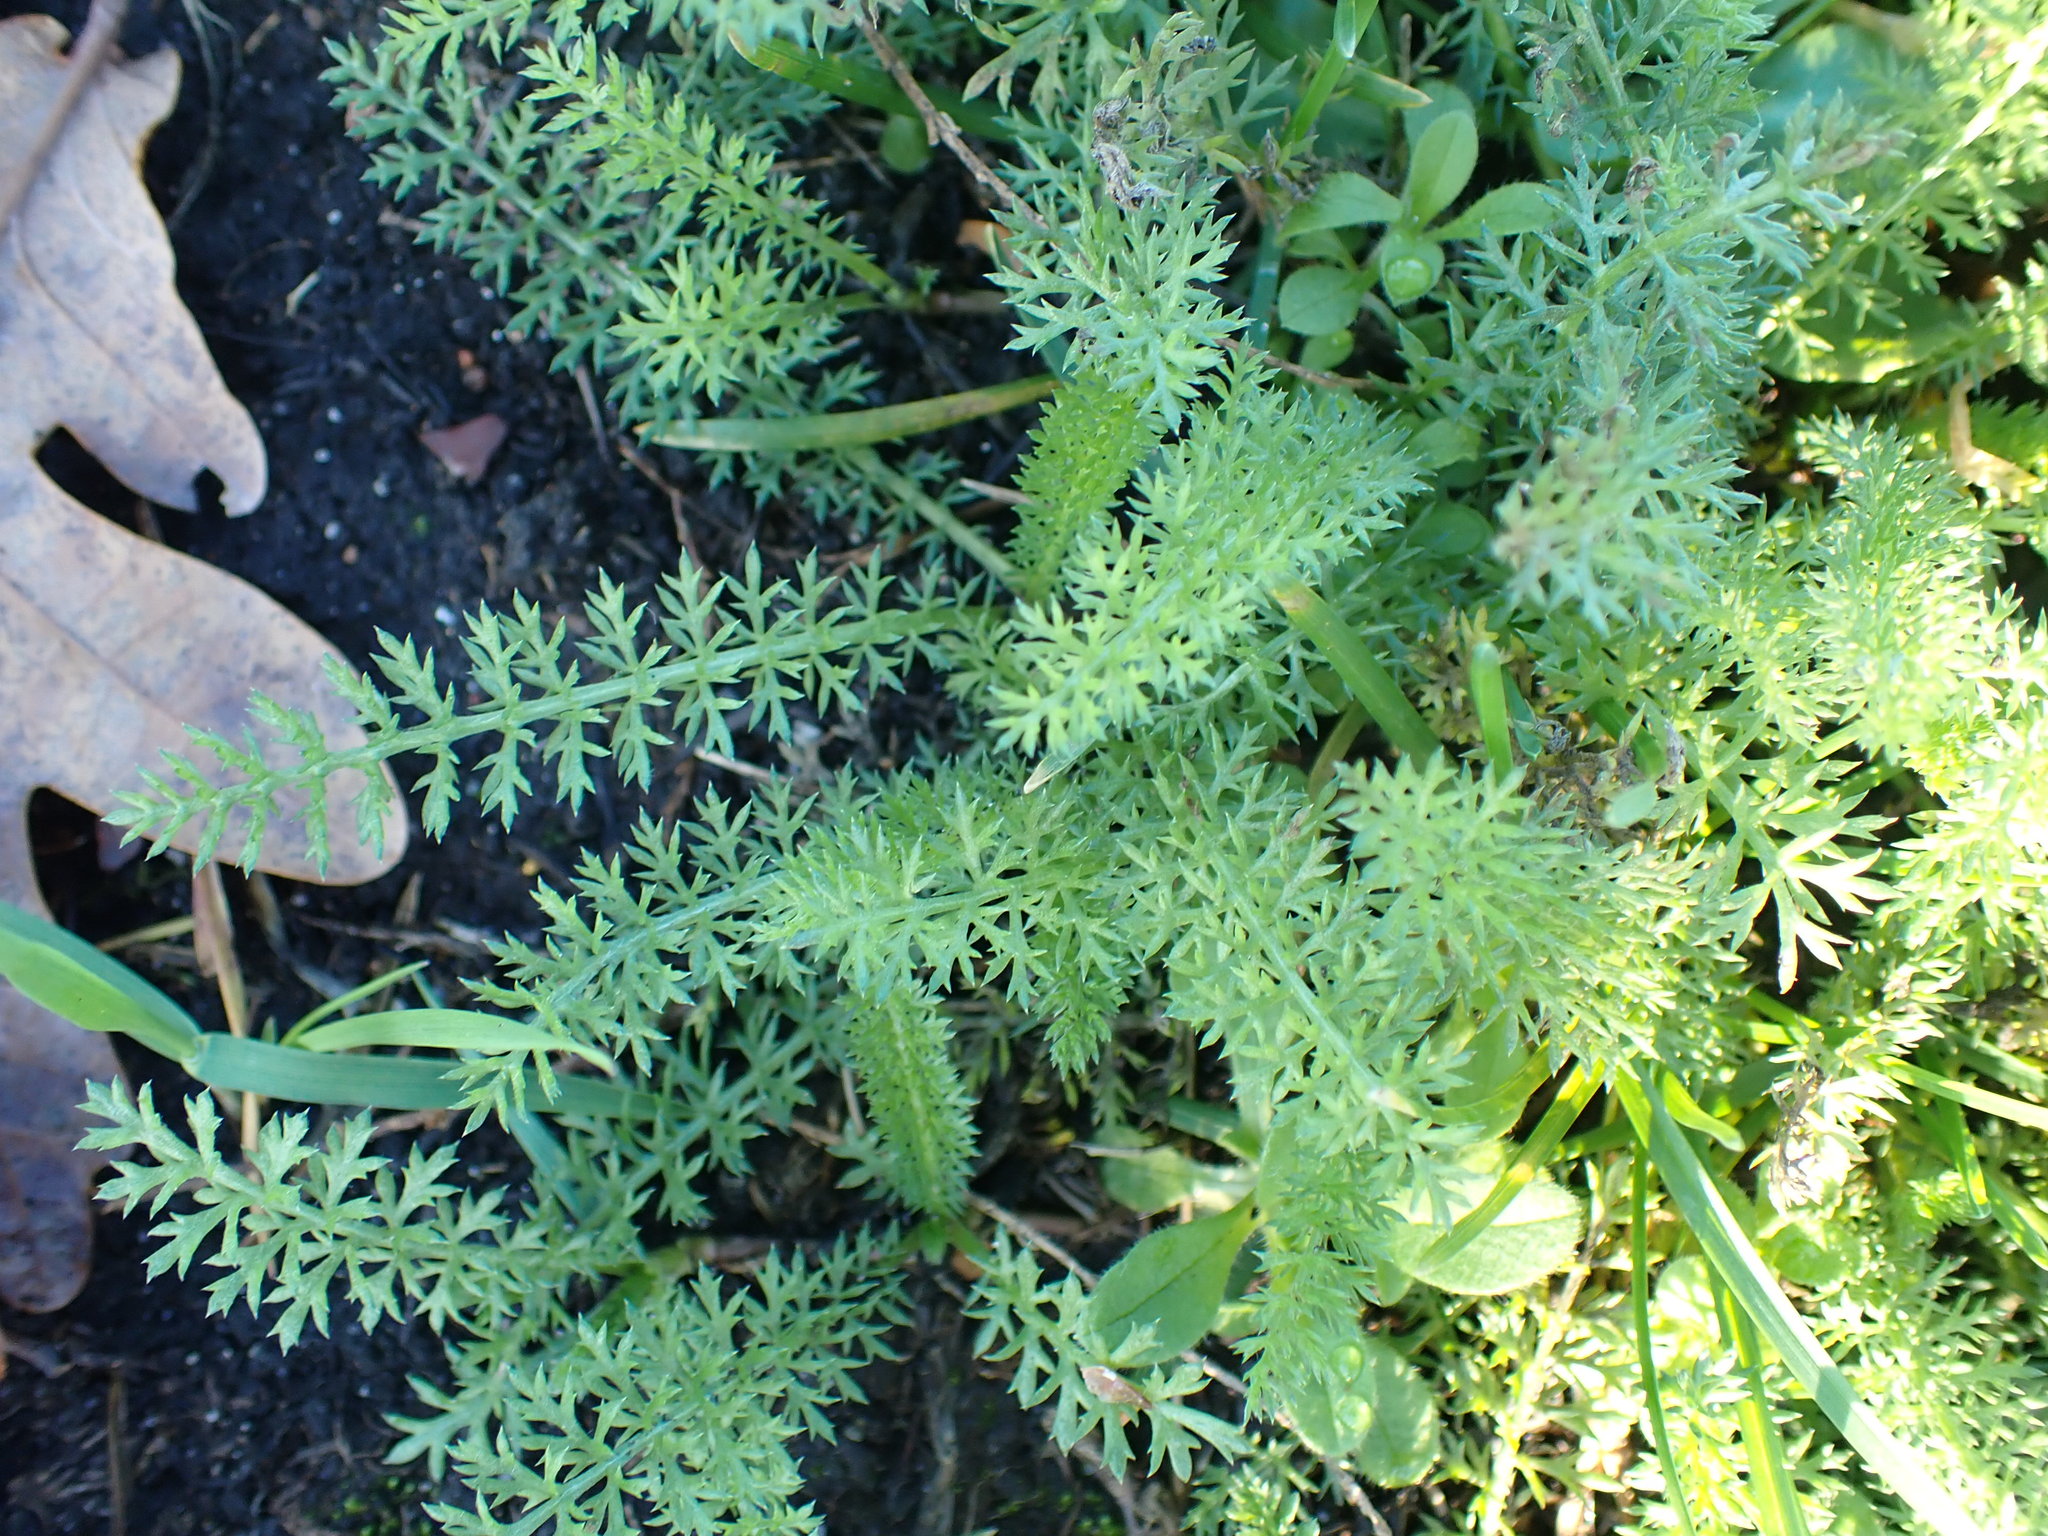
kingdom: Plantae
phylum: Tracheophyta
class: Magnoliopsida
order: Asterales
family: Asteraceae
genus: Achillea
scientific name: Achillea millefolium
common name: Yarrow
